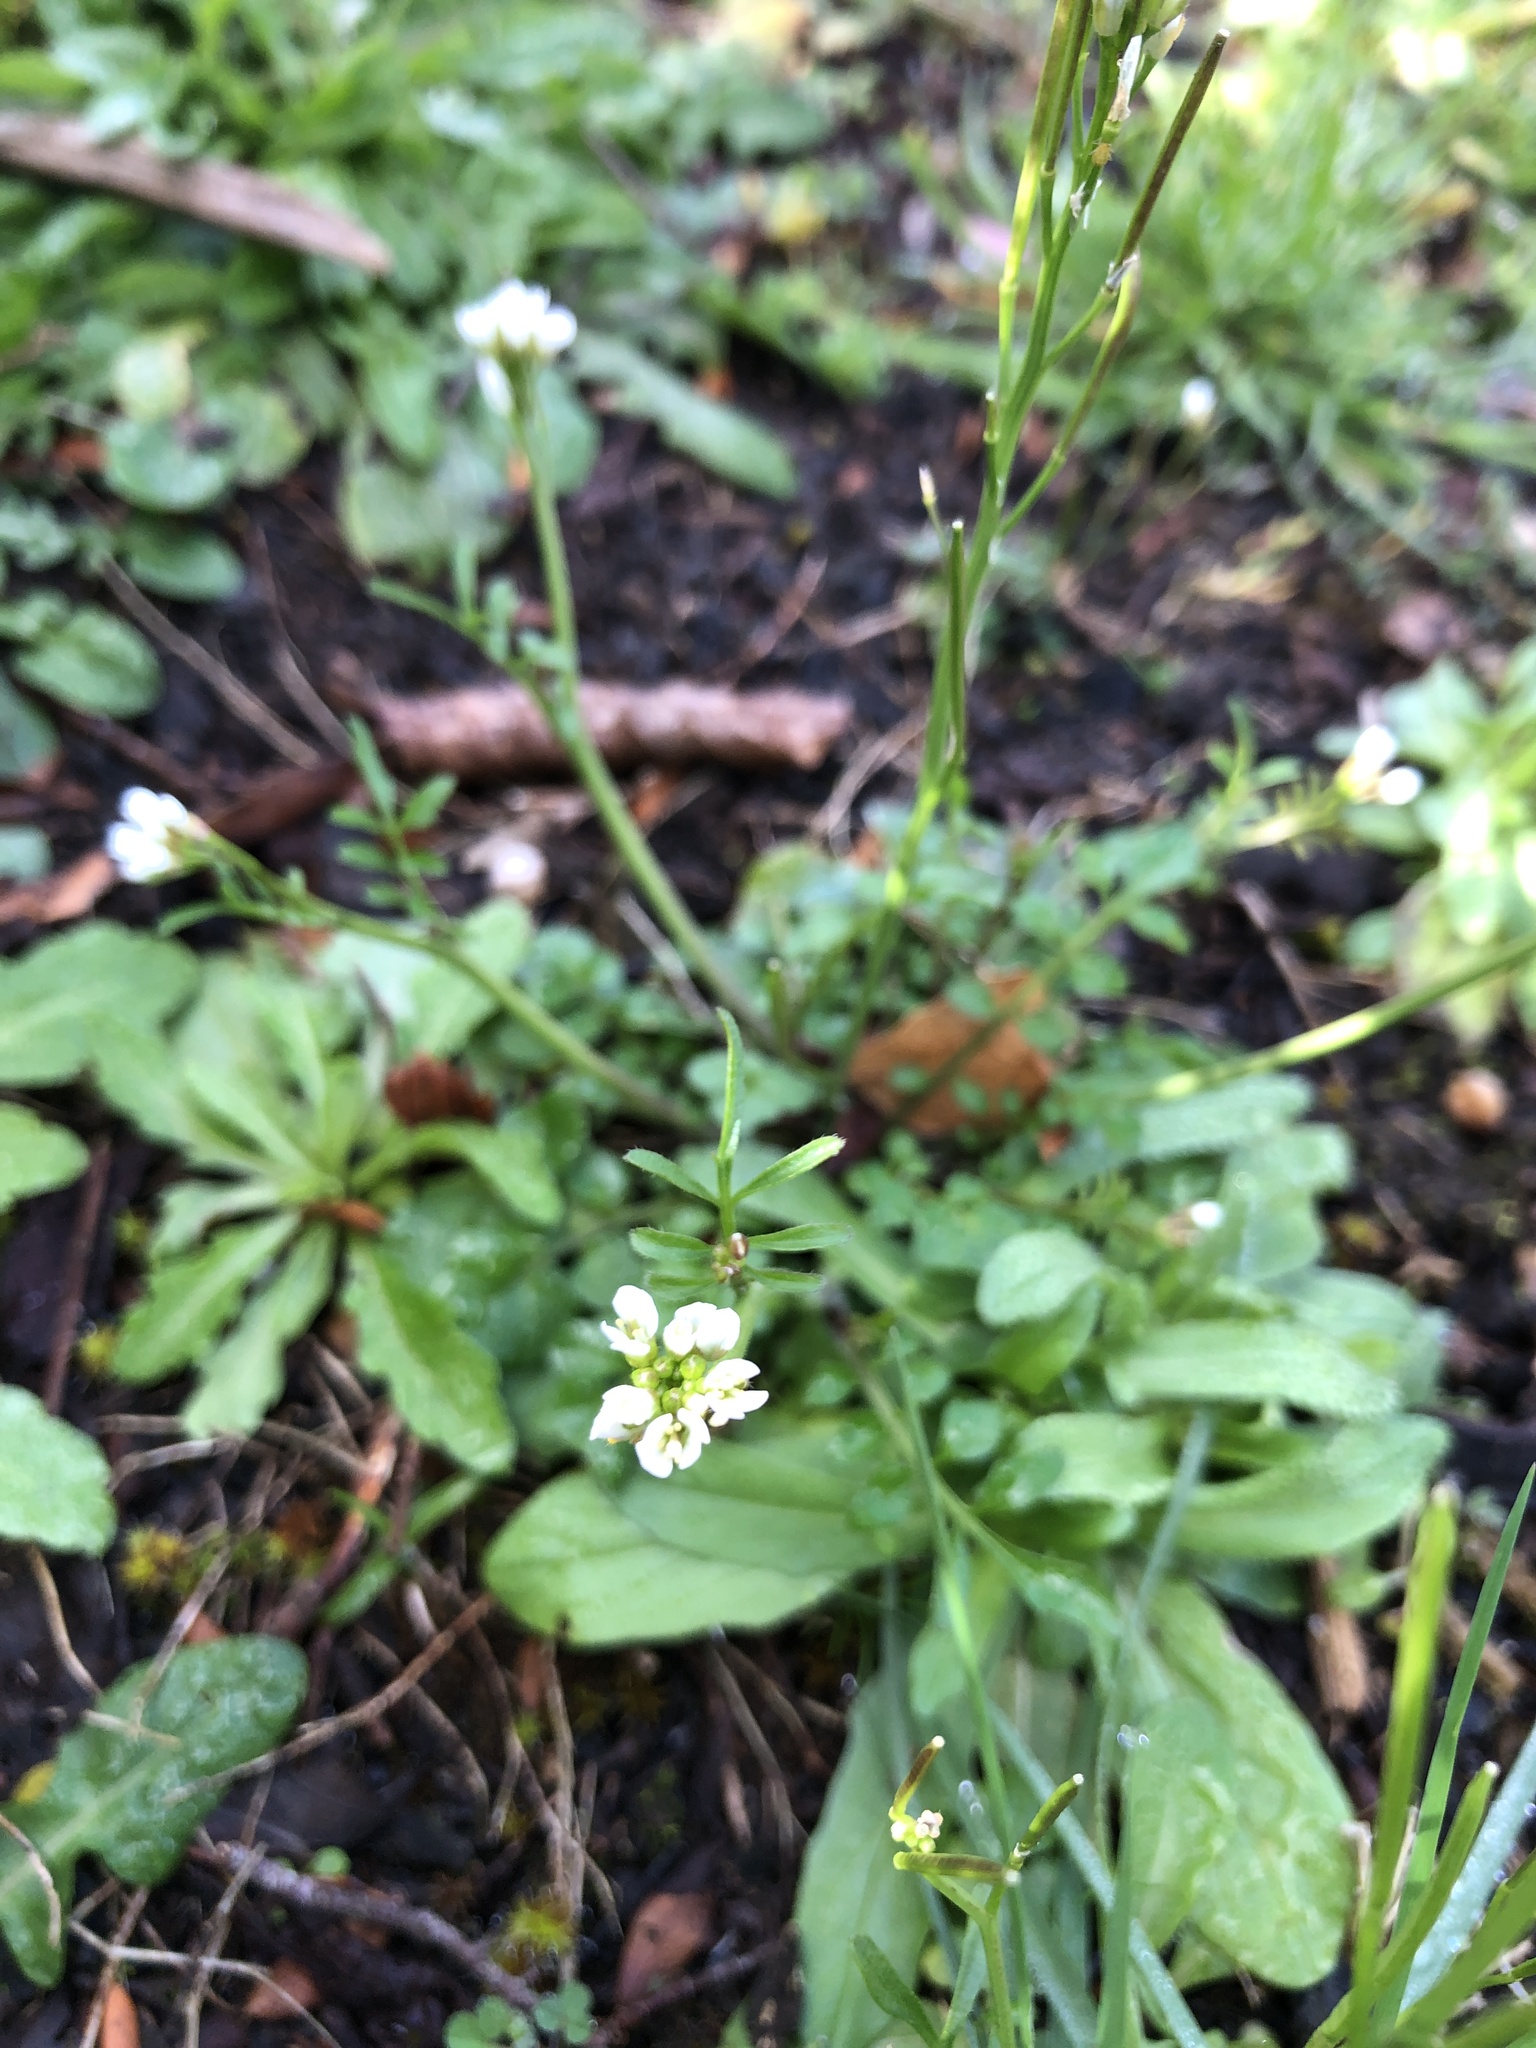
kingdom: Plantae
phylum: Tracheophyta
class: Magnoliopsida
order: Brassicales
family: Brassicaceae
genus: Cardamine
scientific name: Cardamine hirsuta
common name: Hairy bittercress
